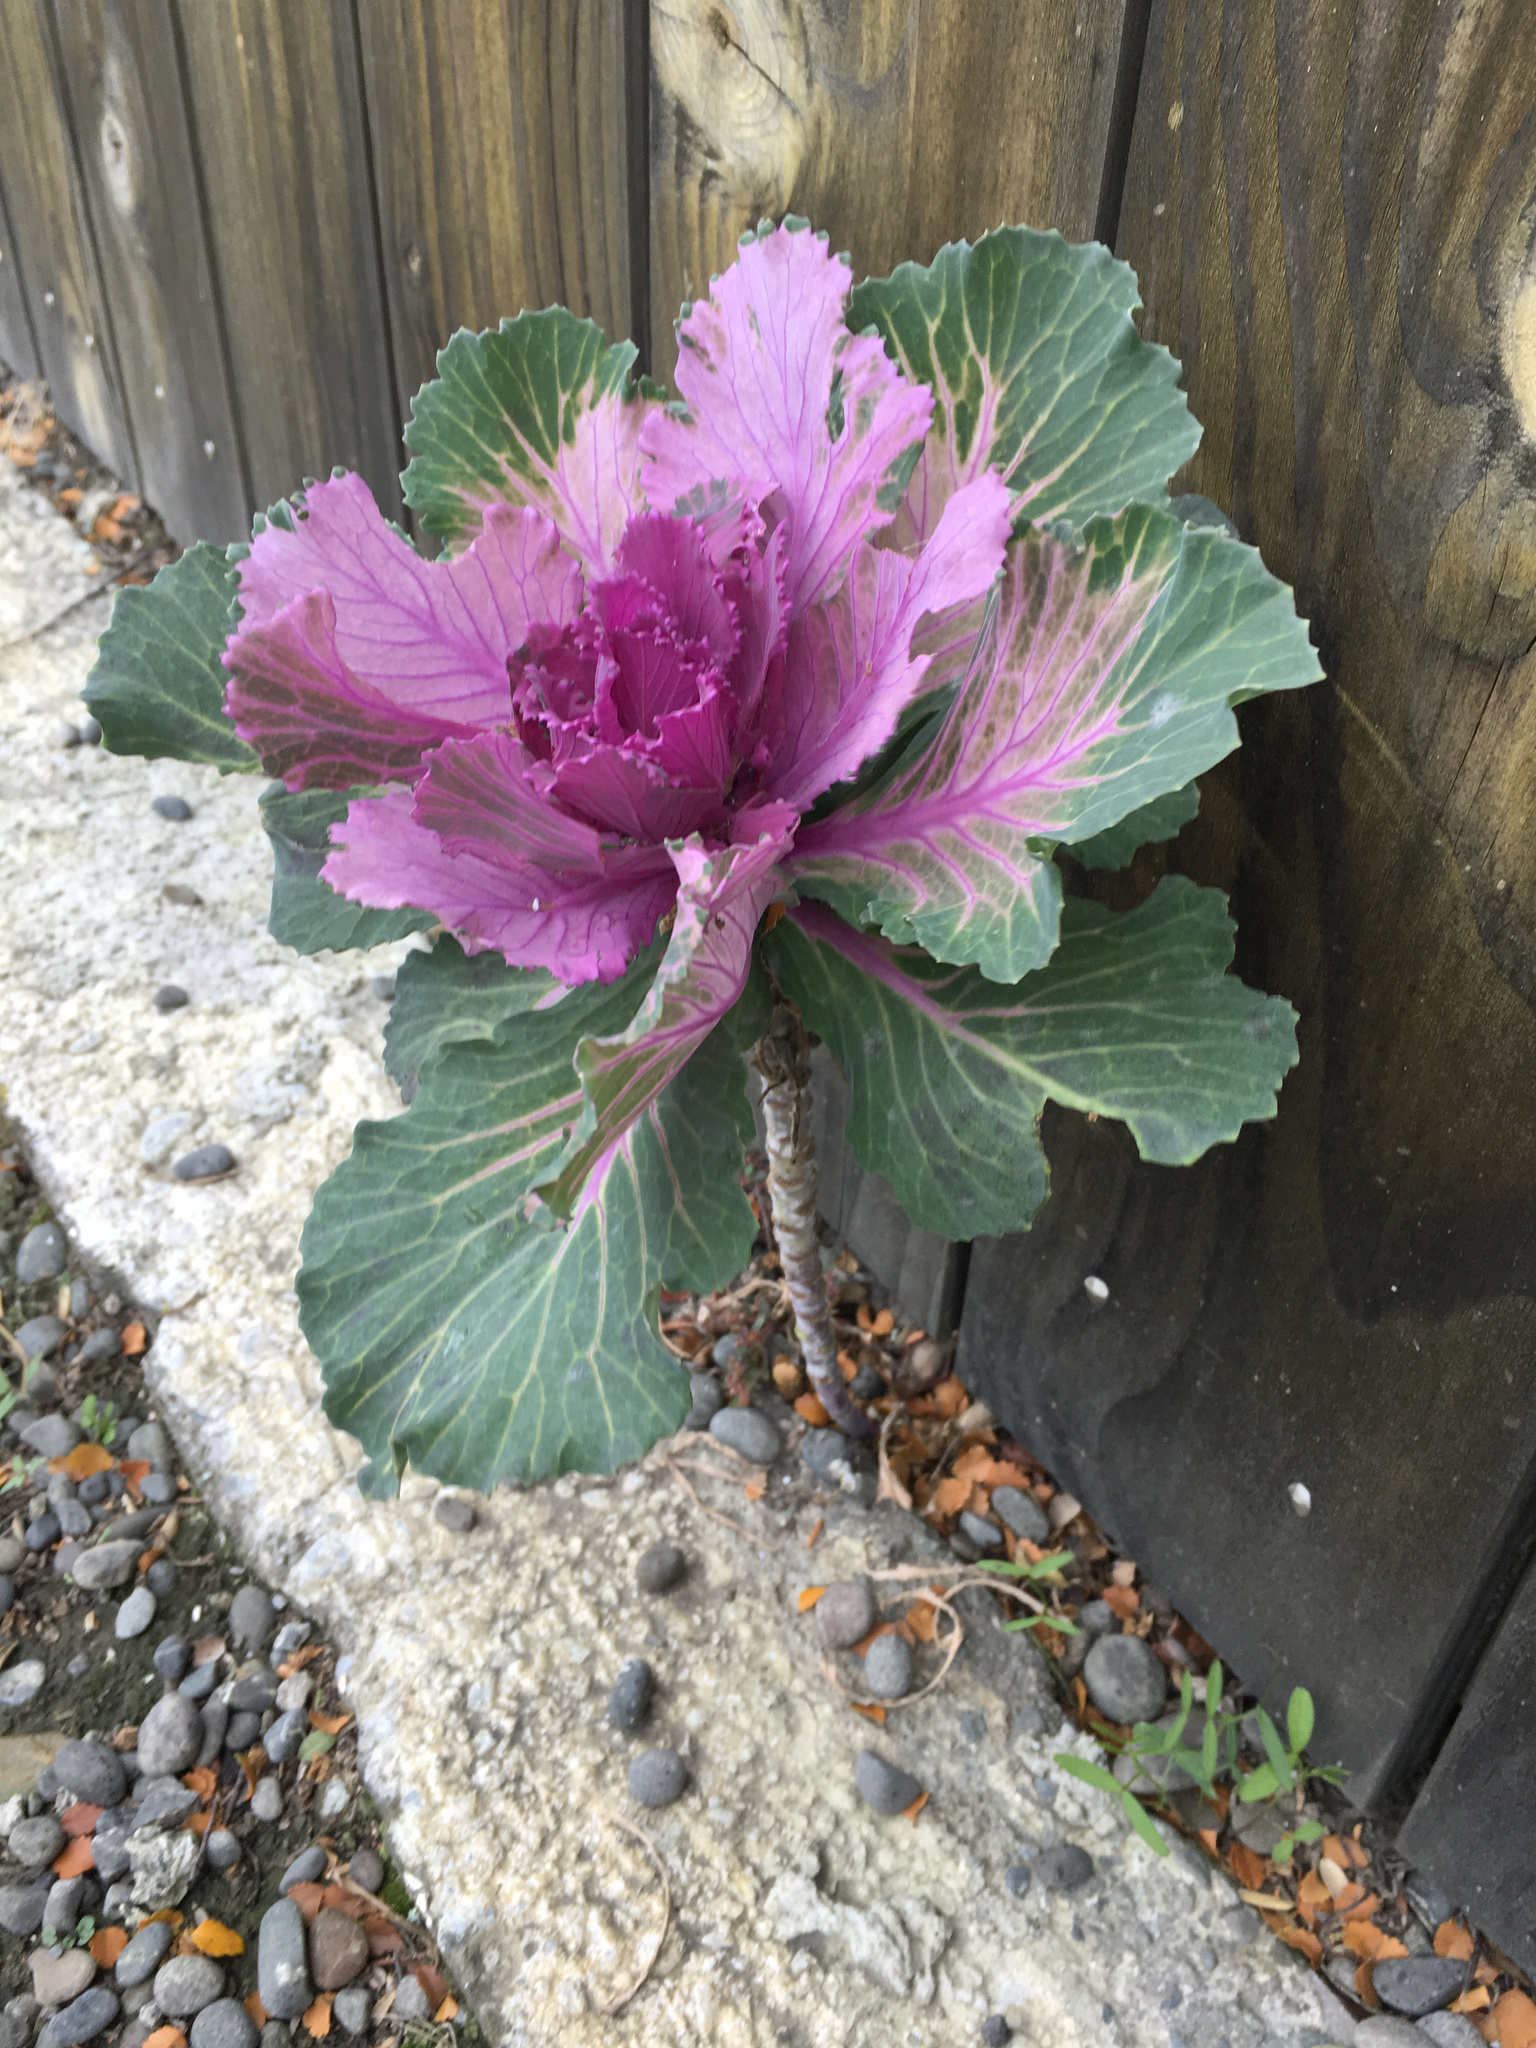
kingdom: Plantae
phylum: Tracheophyta
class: Magnoliopsida
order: Brassicales
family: Brassicaceae
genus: Brassica
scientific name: Brassica oleracea
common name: Cabbage
